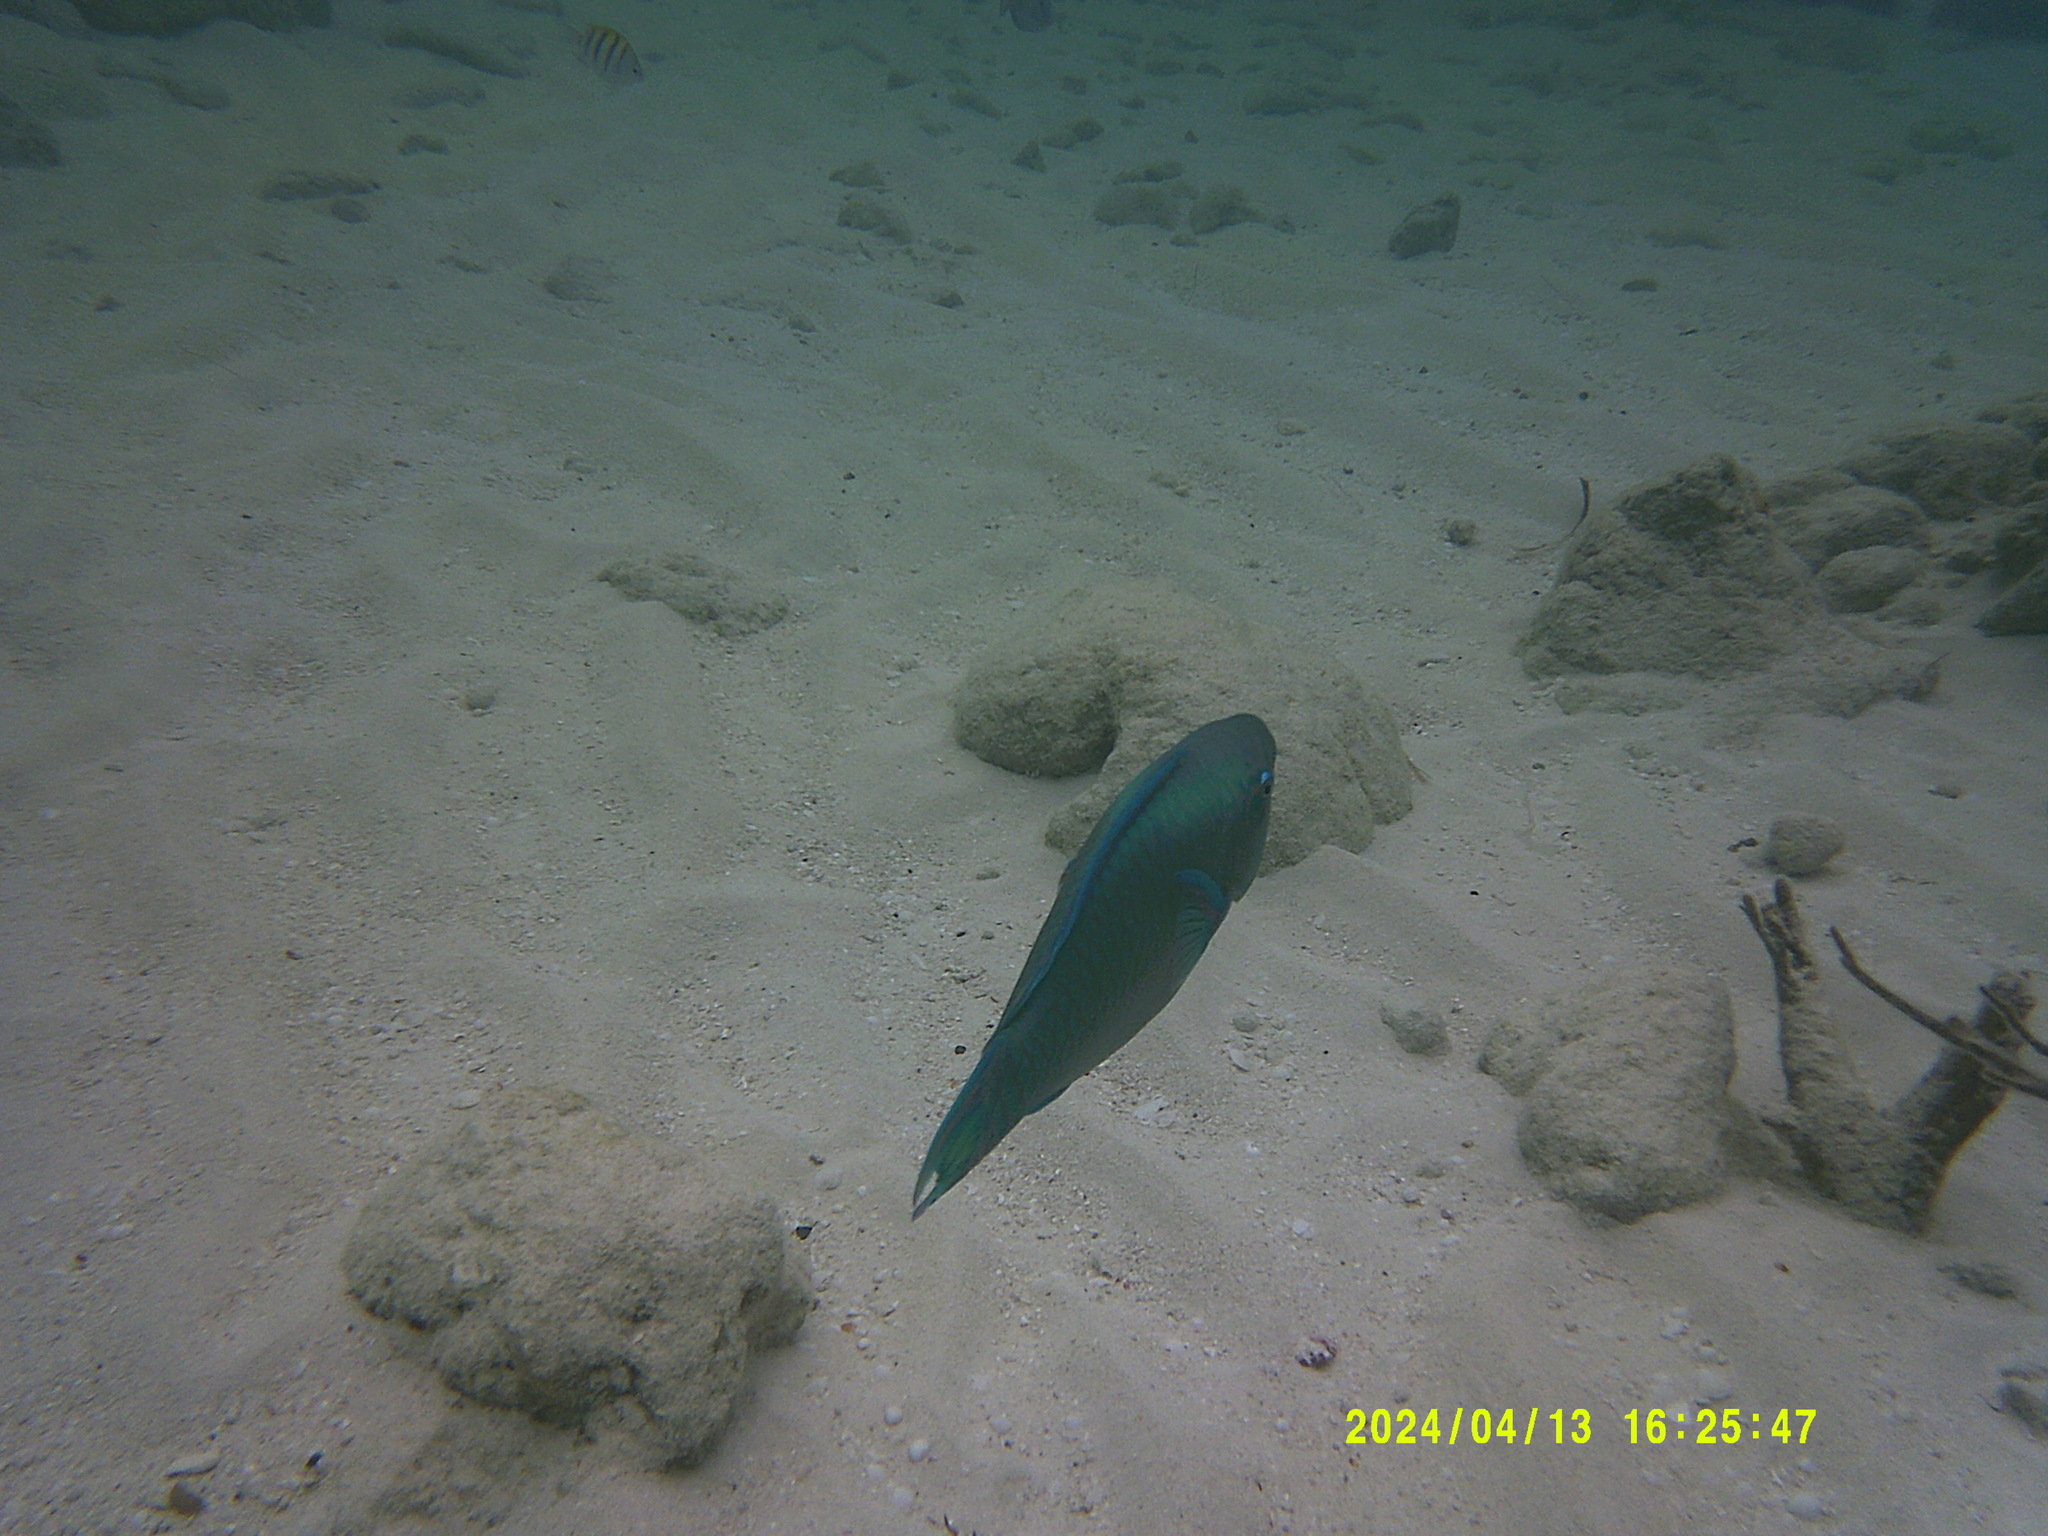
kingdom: Animalia
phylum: Chordata
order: Perciformes
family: Scaridae
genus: Scarus
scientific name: Scarus vetula
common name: Queen parrotfish
